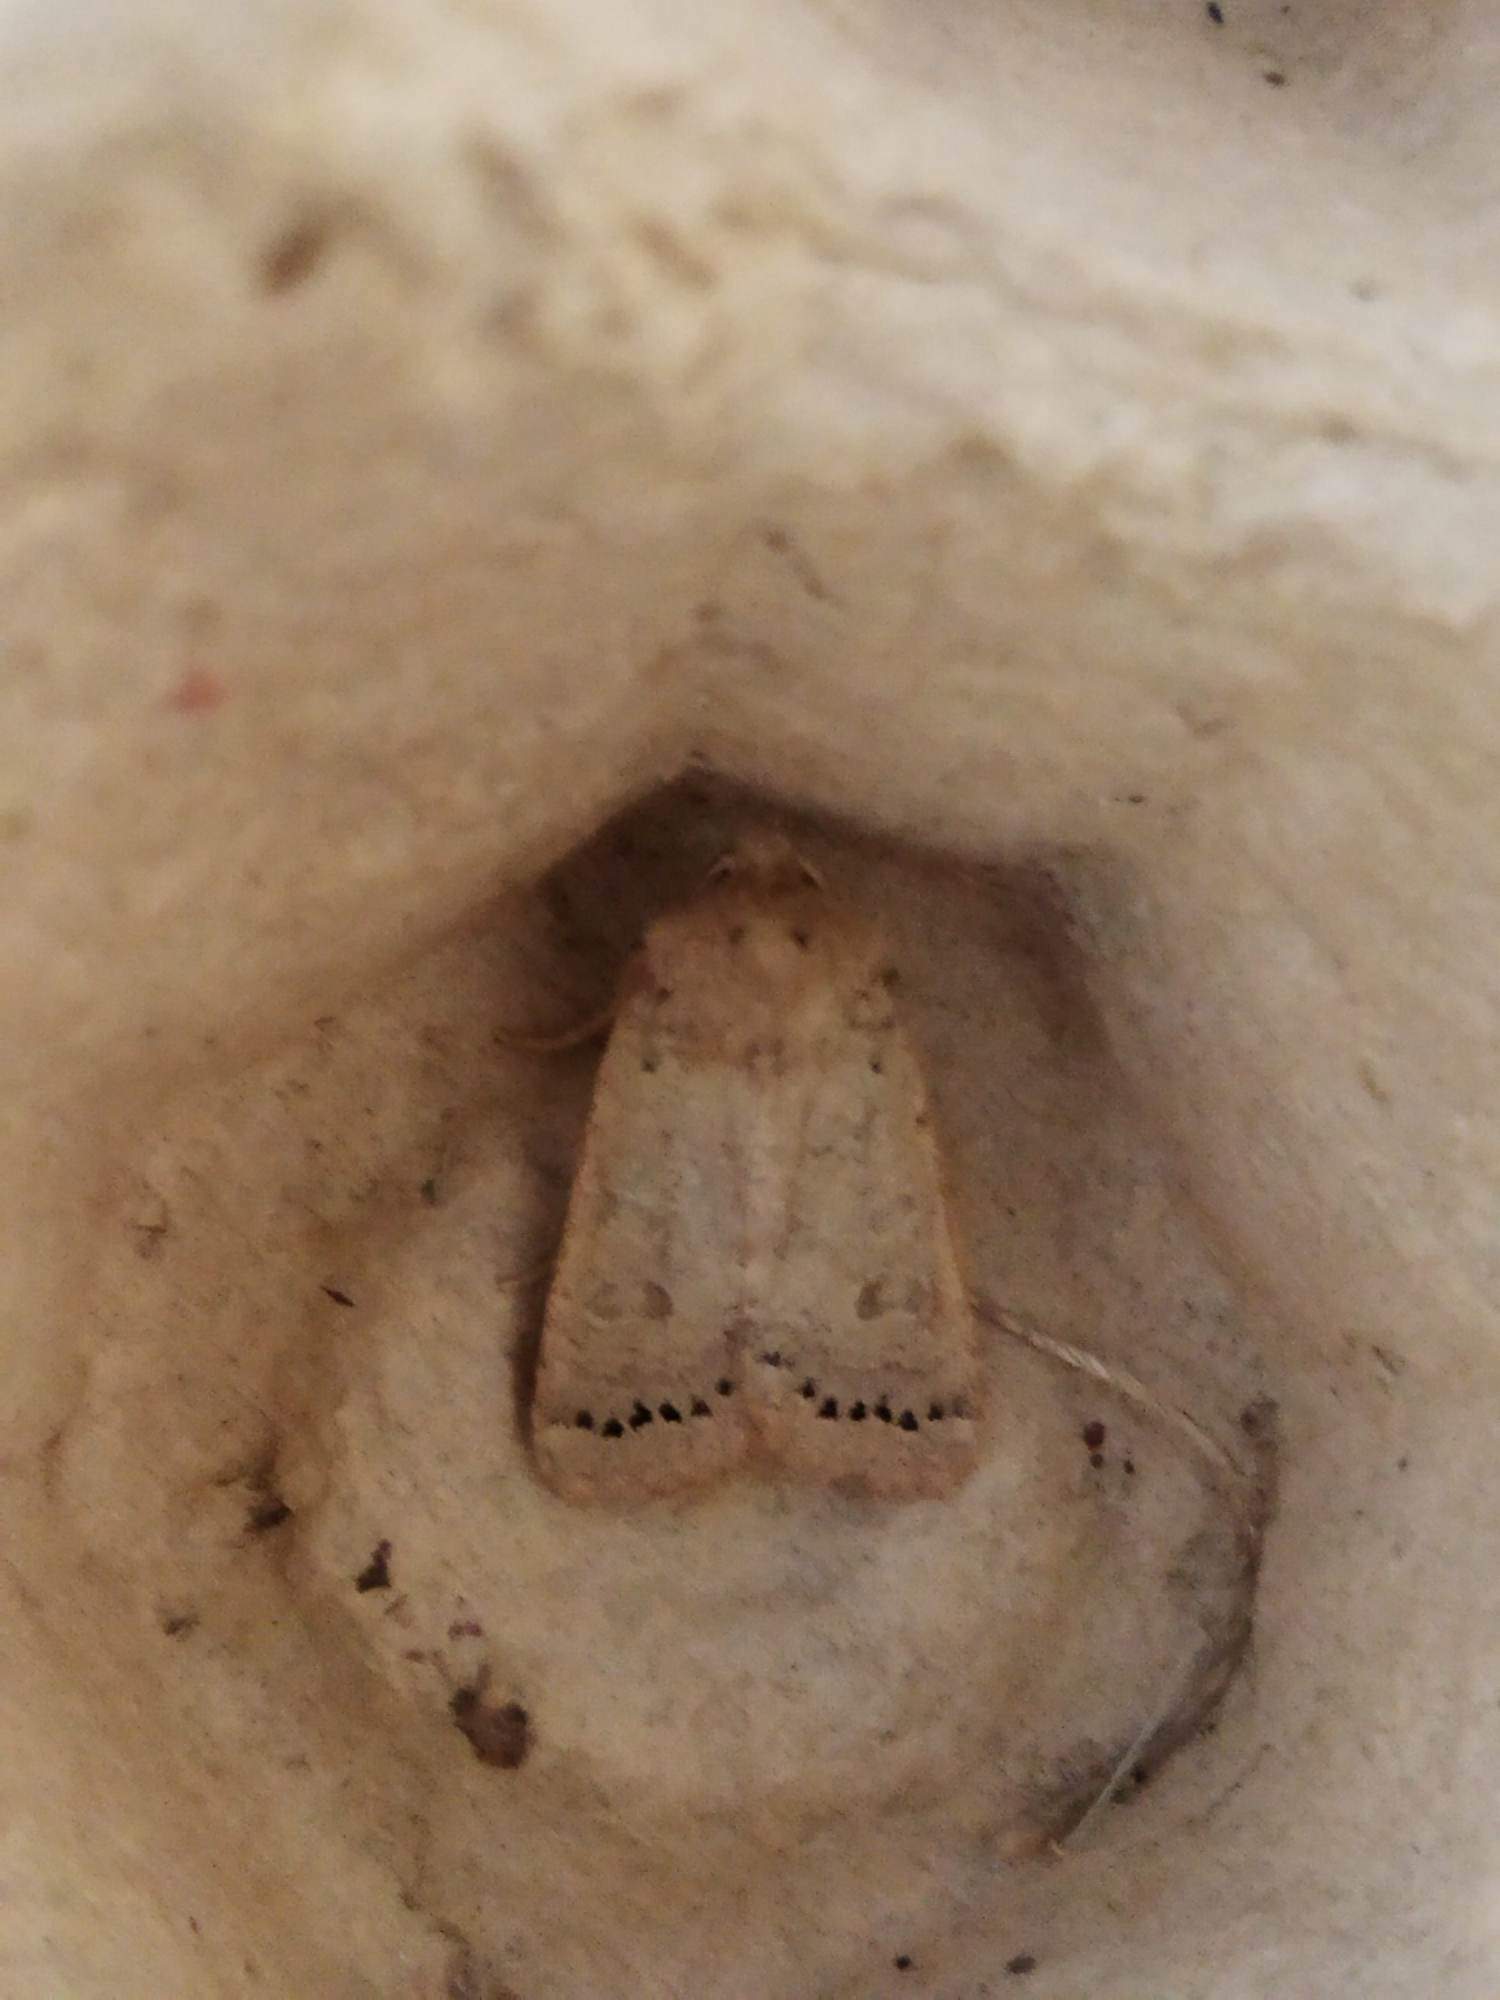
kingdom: Animalia
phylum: Arthropoda
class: Insecta
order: Lepidoptera
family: Noctuidae
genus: Agrochola
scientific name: Agrochola osthelderi
